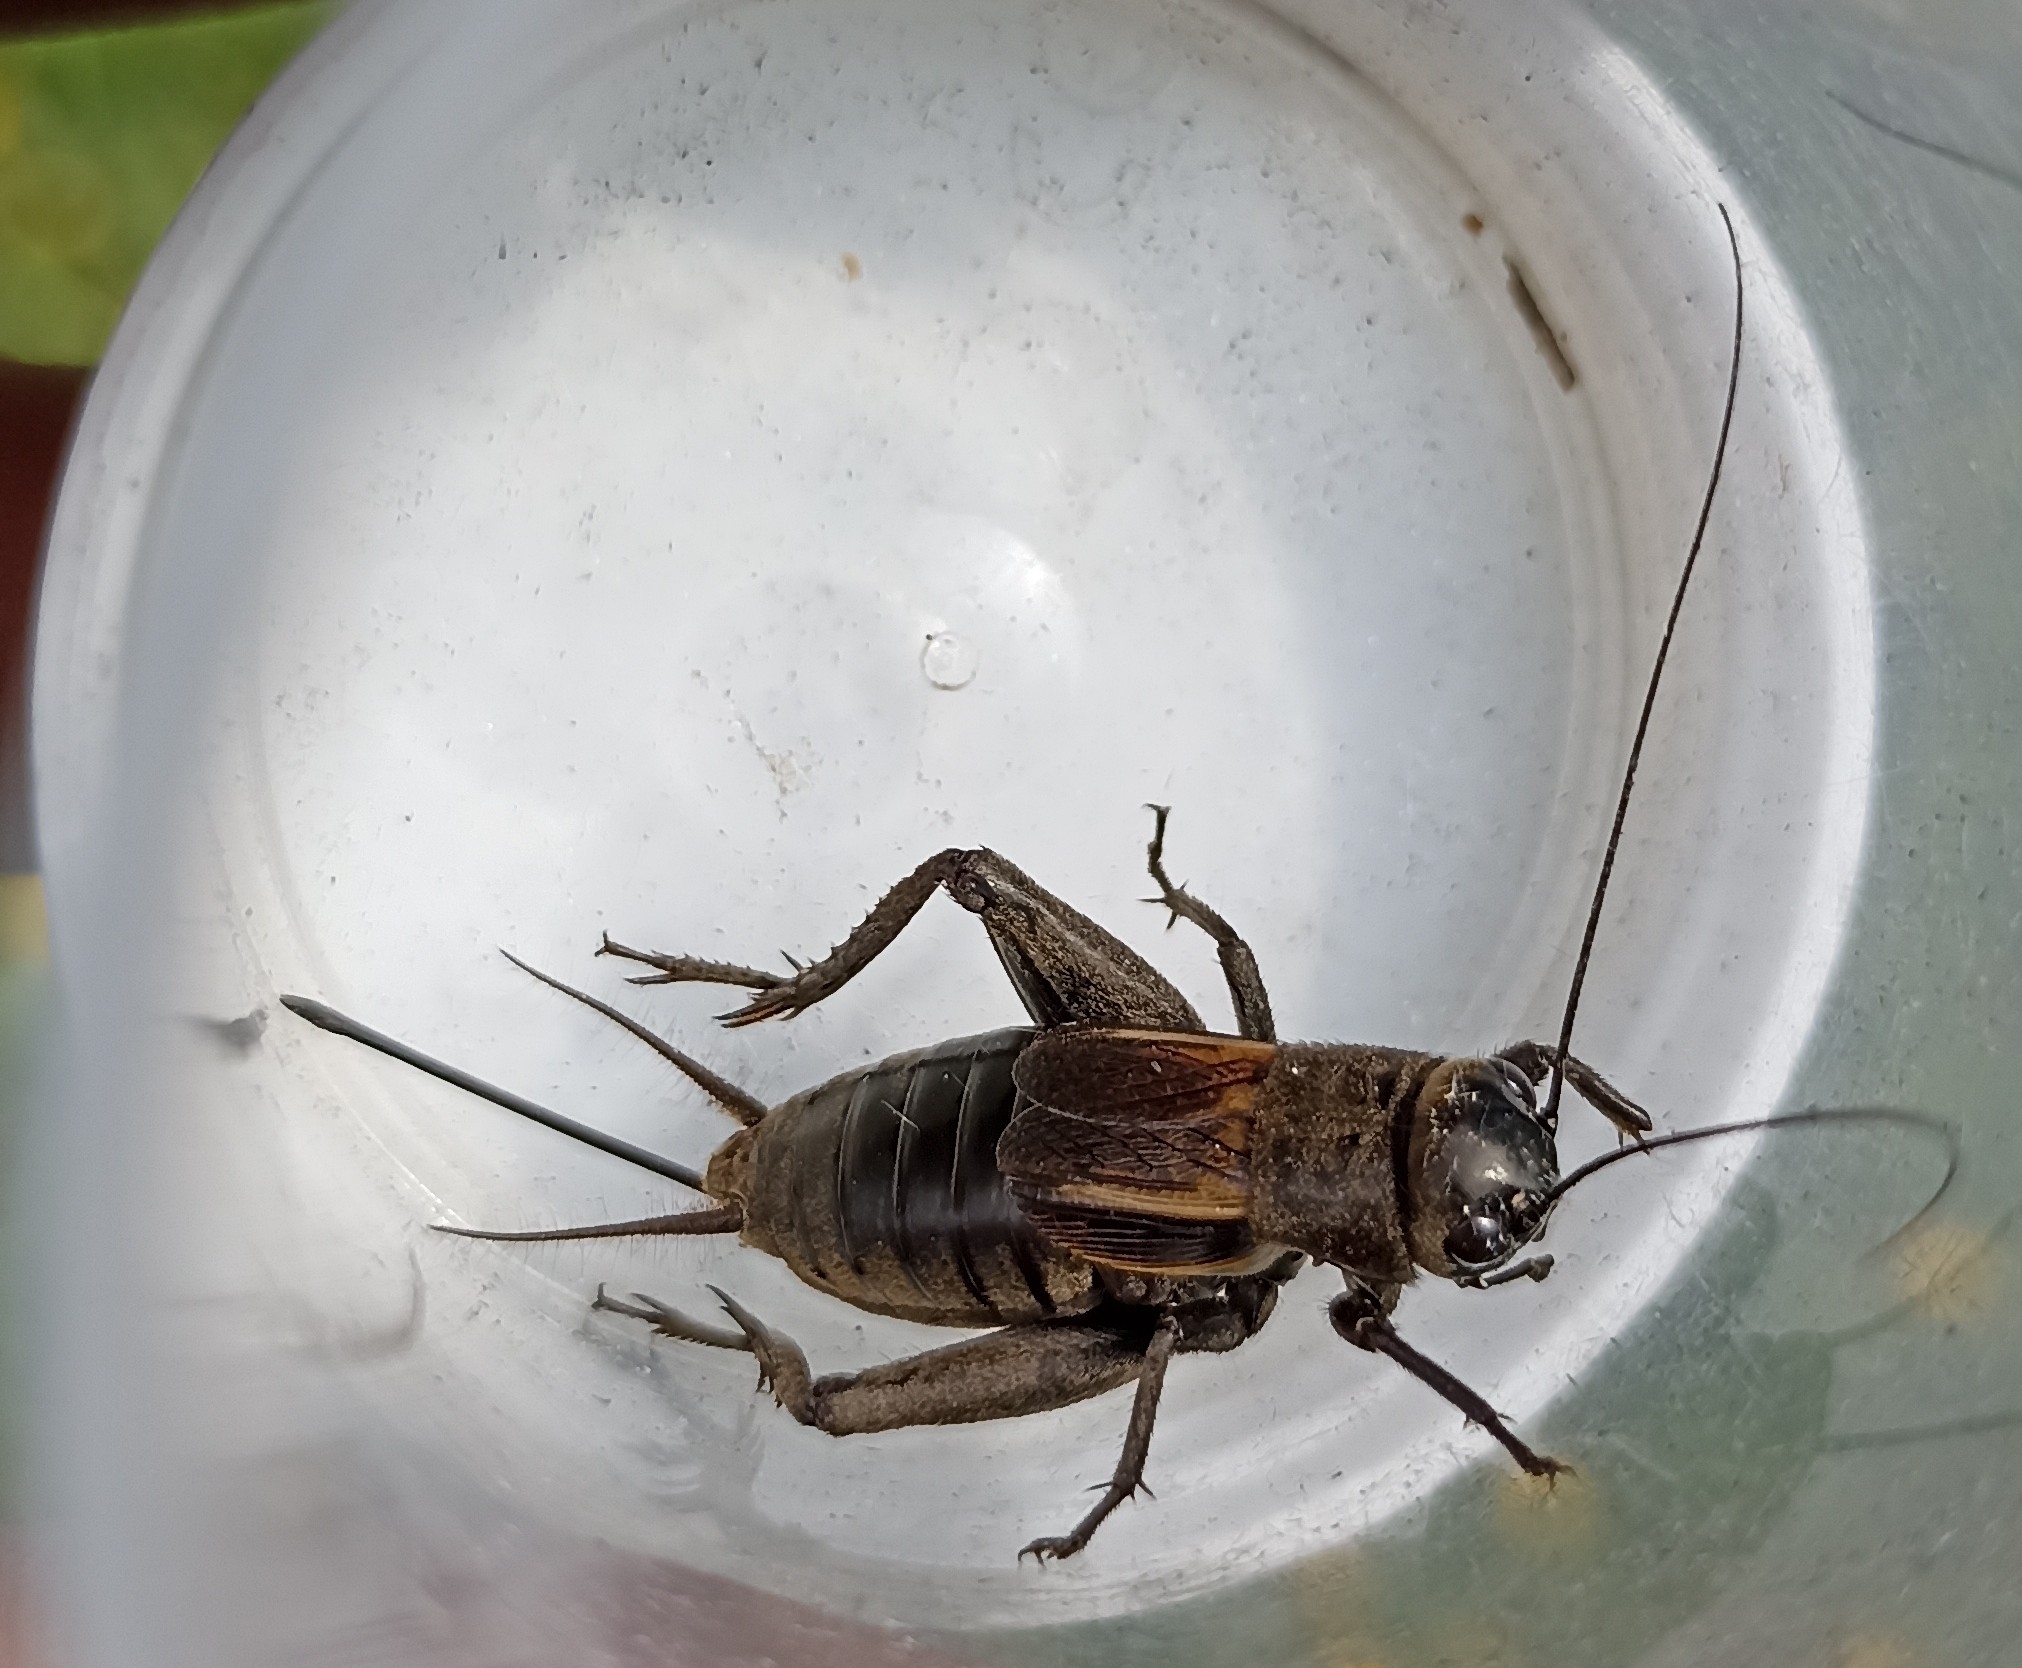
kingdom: Animalia
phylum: Arthropoda
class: Insecta
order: Orthoptera
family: Gryllidae
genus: Melanogryllus
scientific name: Melanogryllus desertus
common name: Desert cricket
